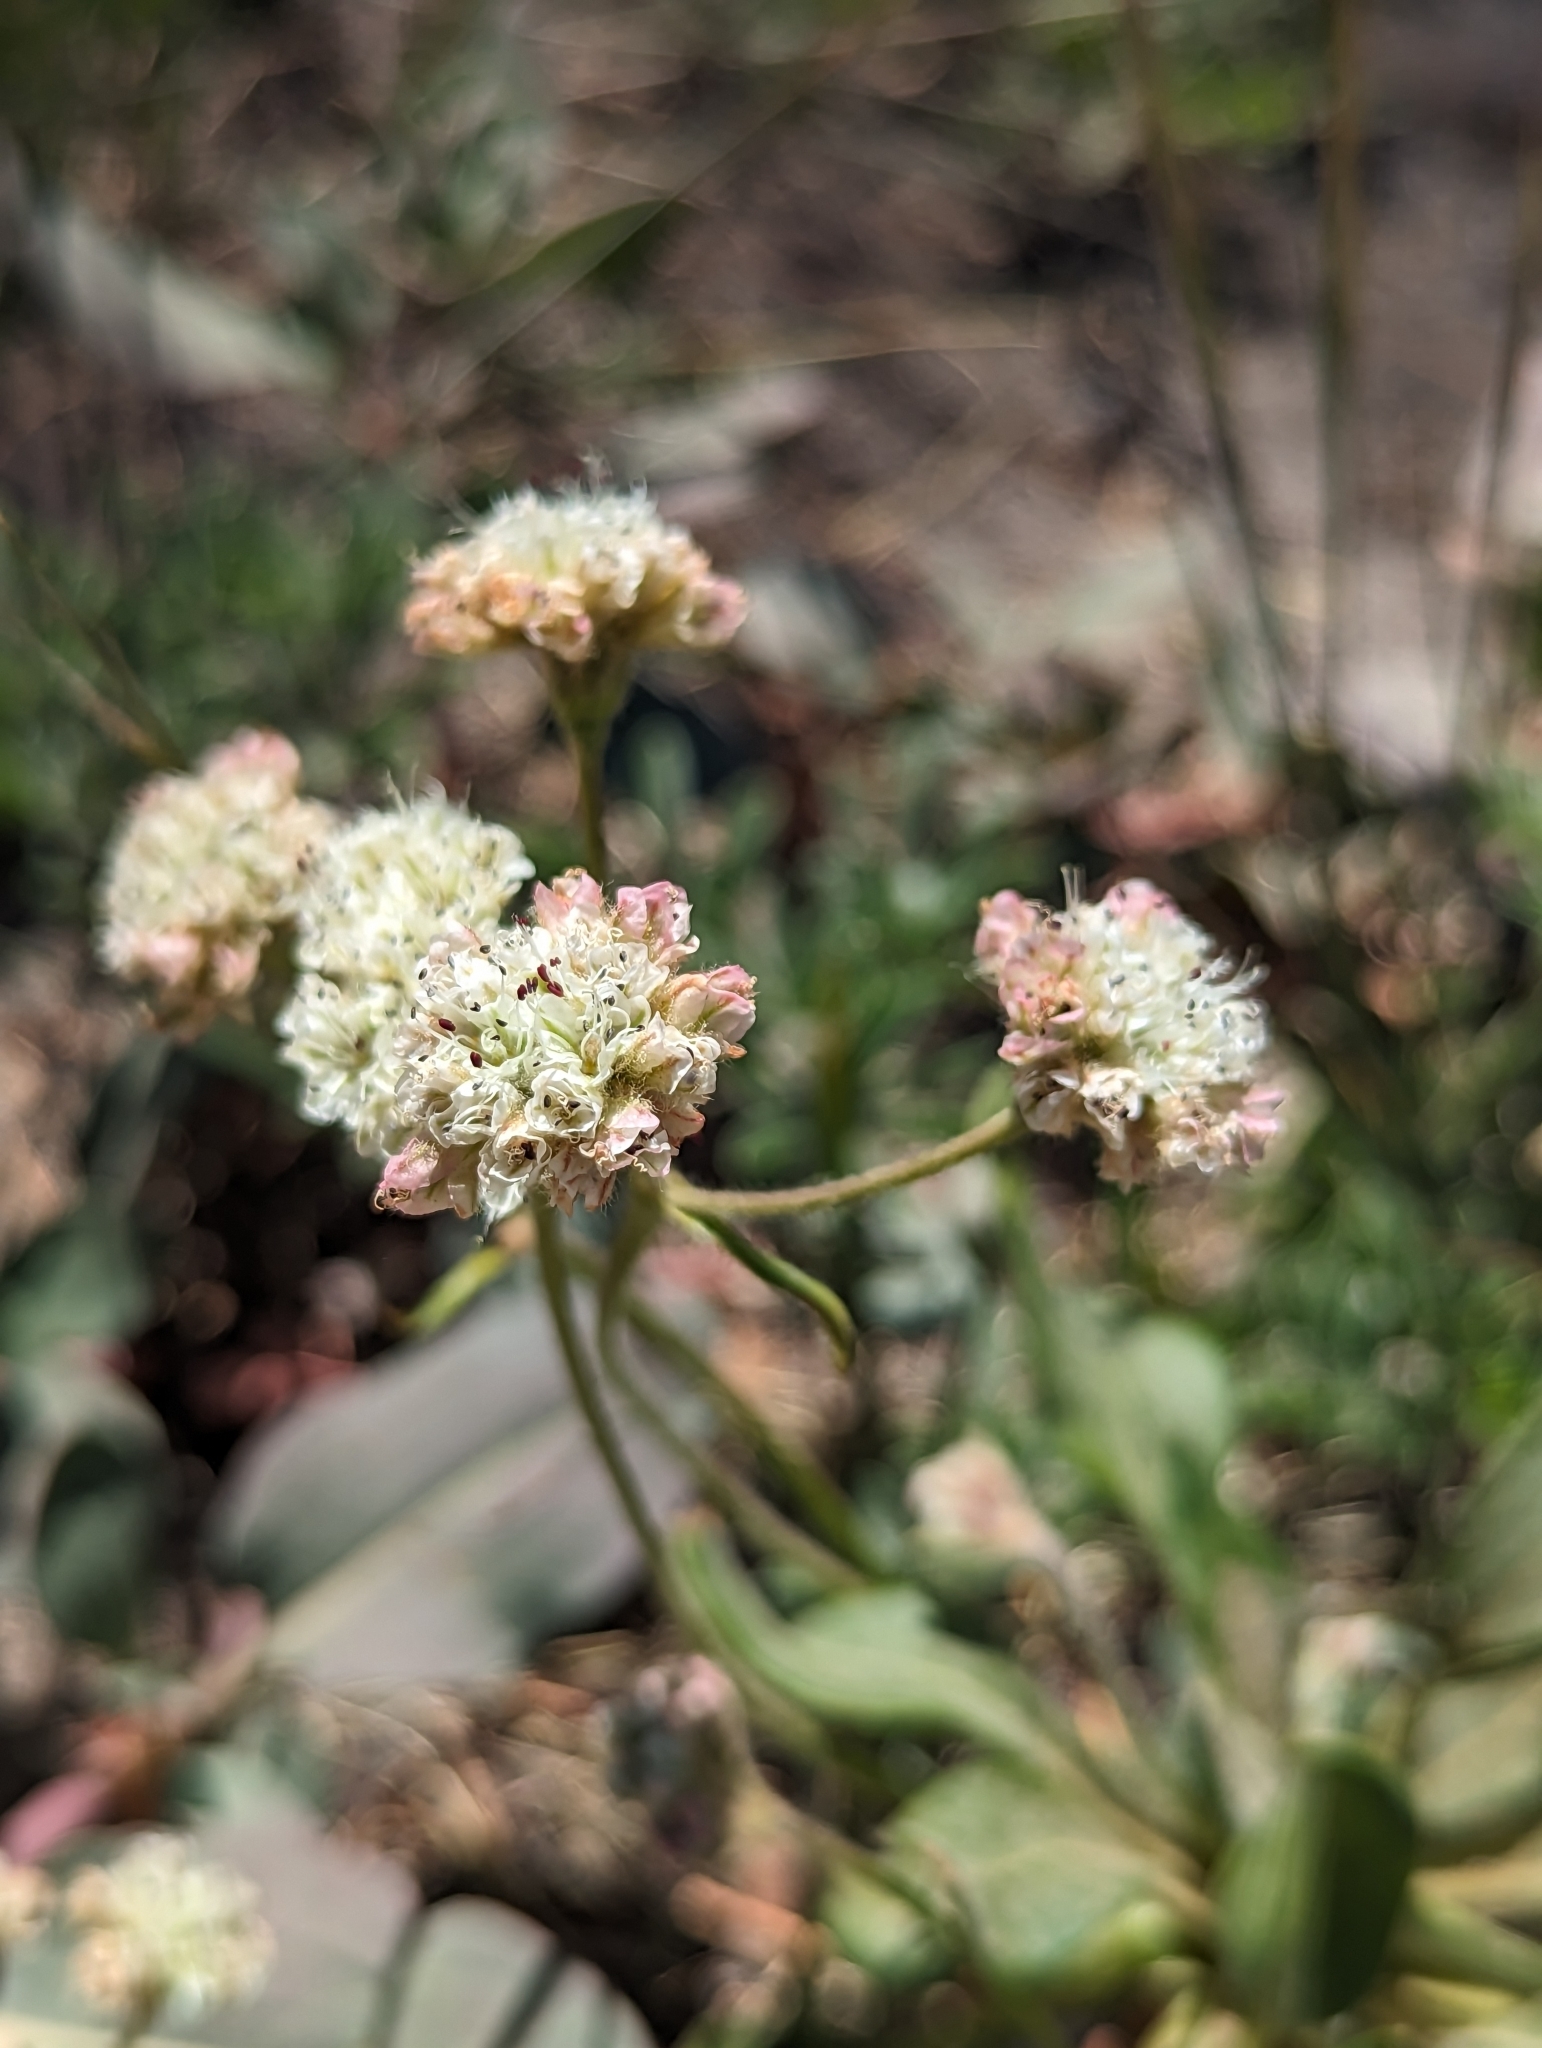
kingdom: Plantae
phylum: Tracheophyta
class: Magnoliopsida
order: Caryophyllales
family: Polygonaceae
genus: Eriogonum
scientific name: Eriogonum pyrolifolium
